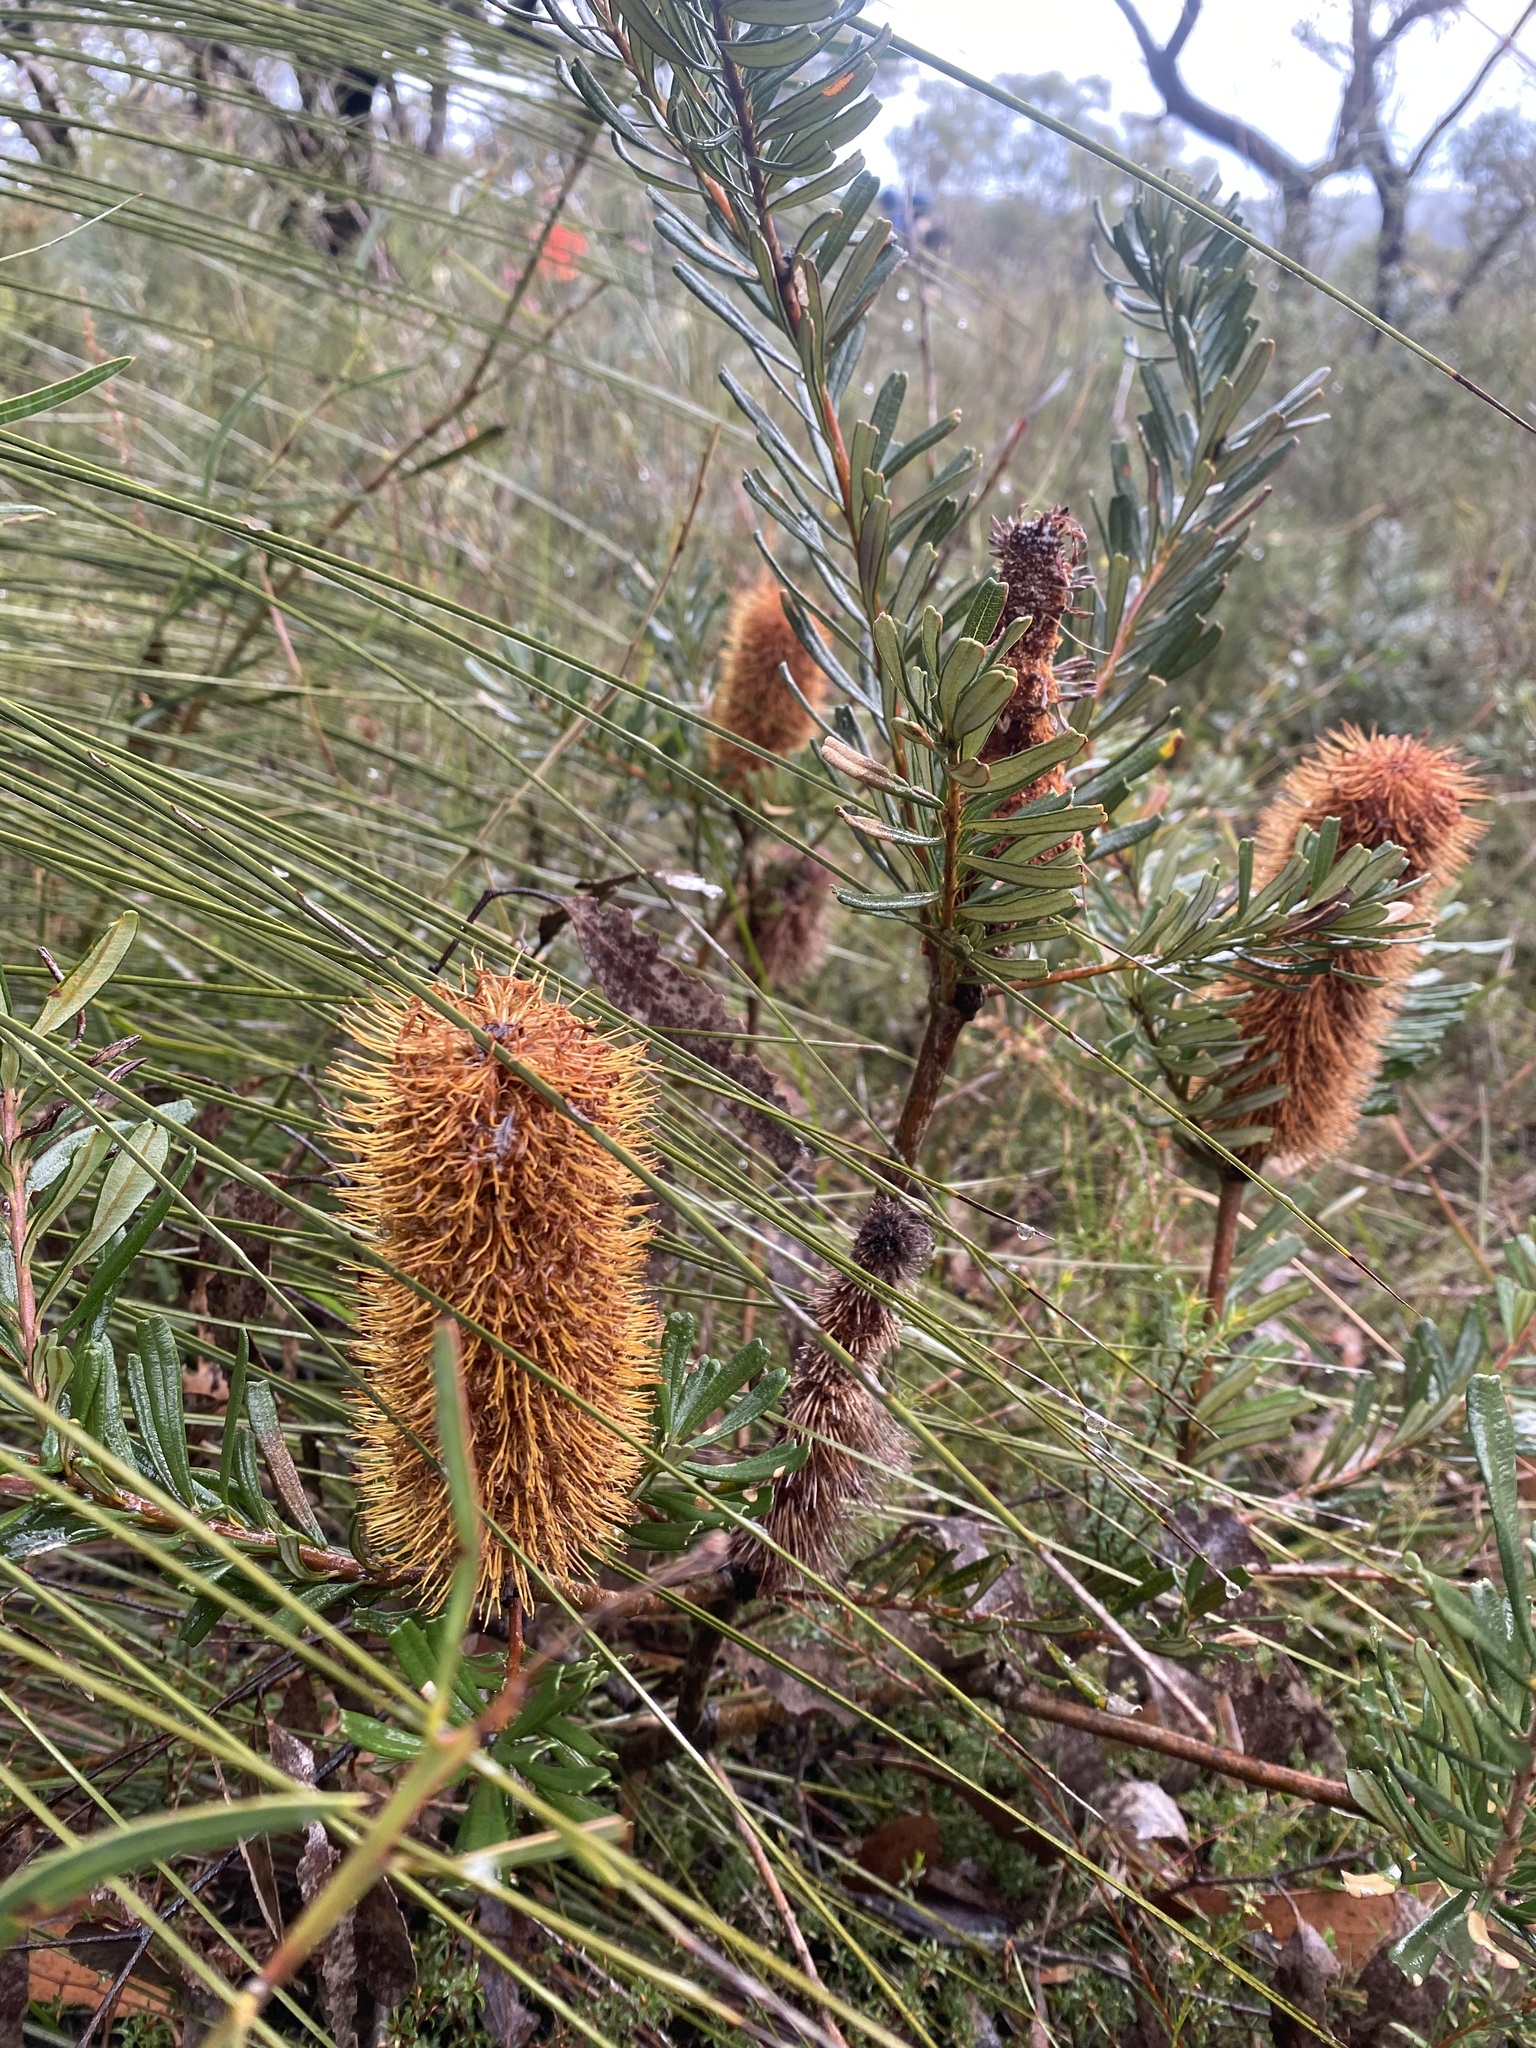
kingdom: Plantae
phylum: Tracheophyta
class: Magnoliopsida
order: Proteales
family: Proteaceae
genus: Banksia
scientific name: Banksia marginata
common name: Silver banksia
